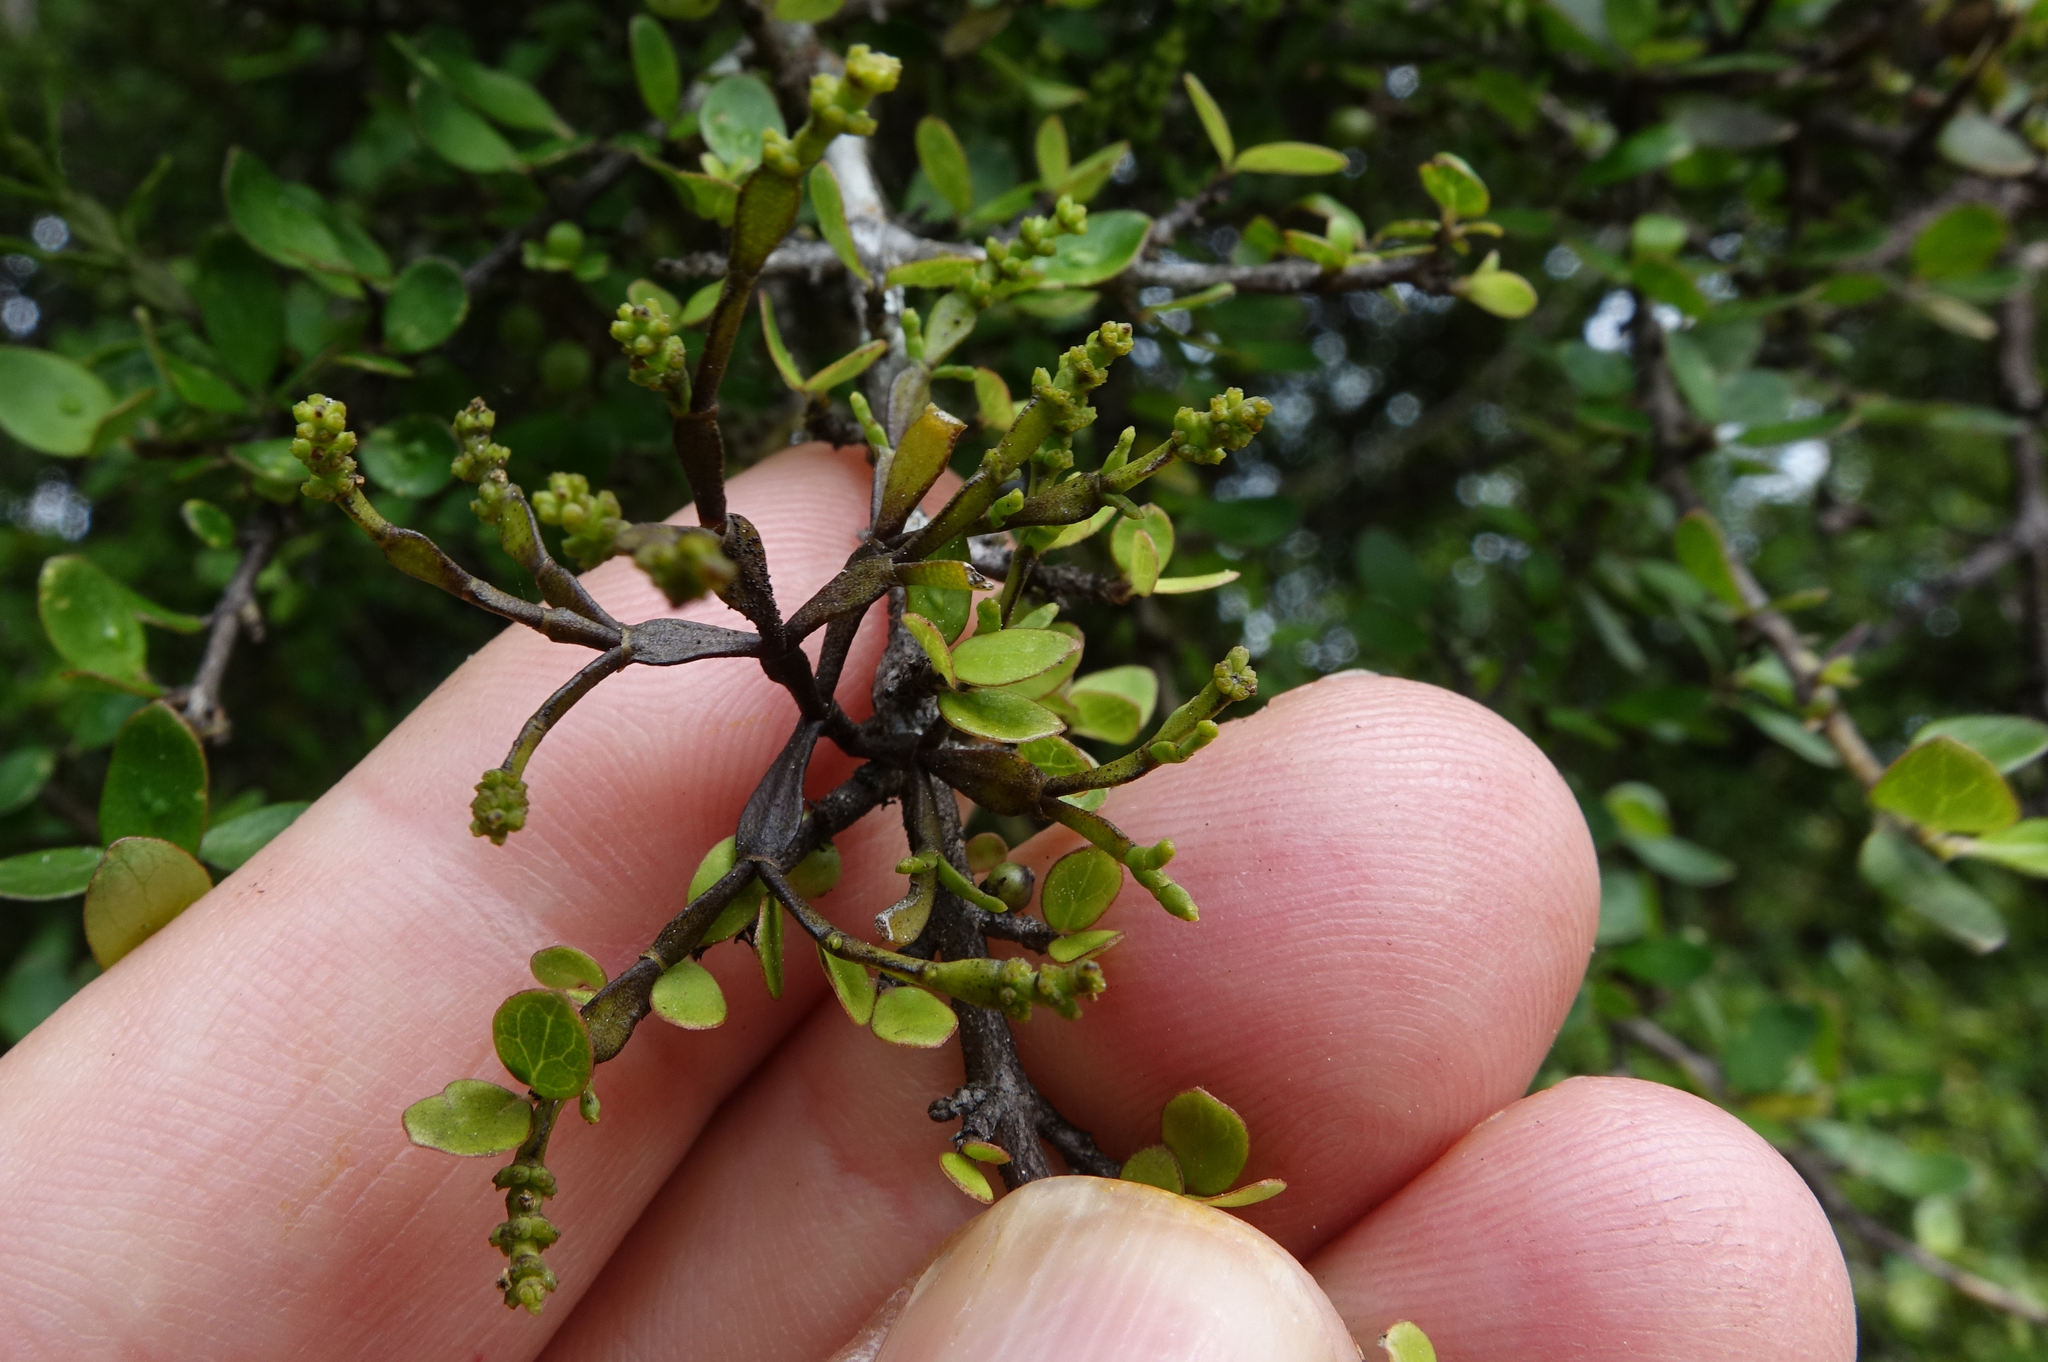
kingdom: Plantae
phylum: Tracheophyta
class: Magnoliopsida
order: Santalales
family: Viscaceae
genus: Korthalsella
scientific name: Korthalsella clavata
